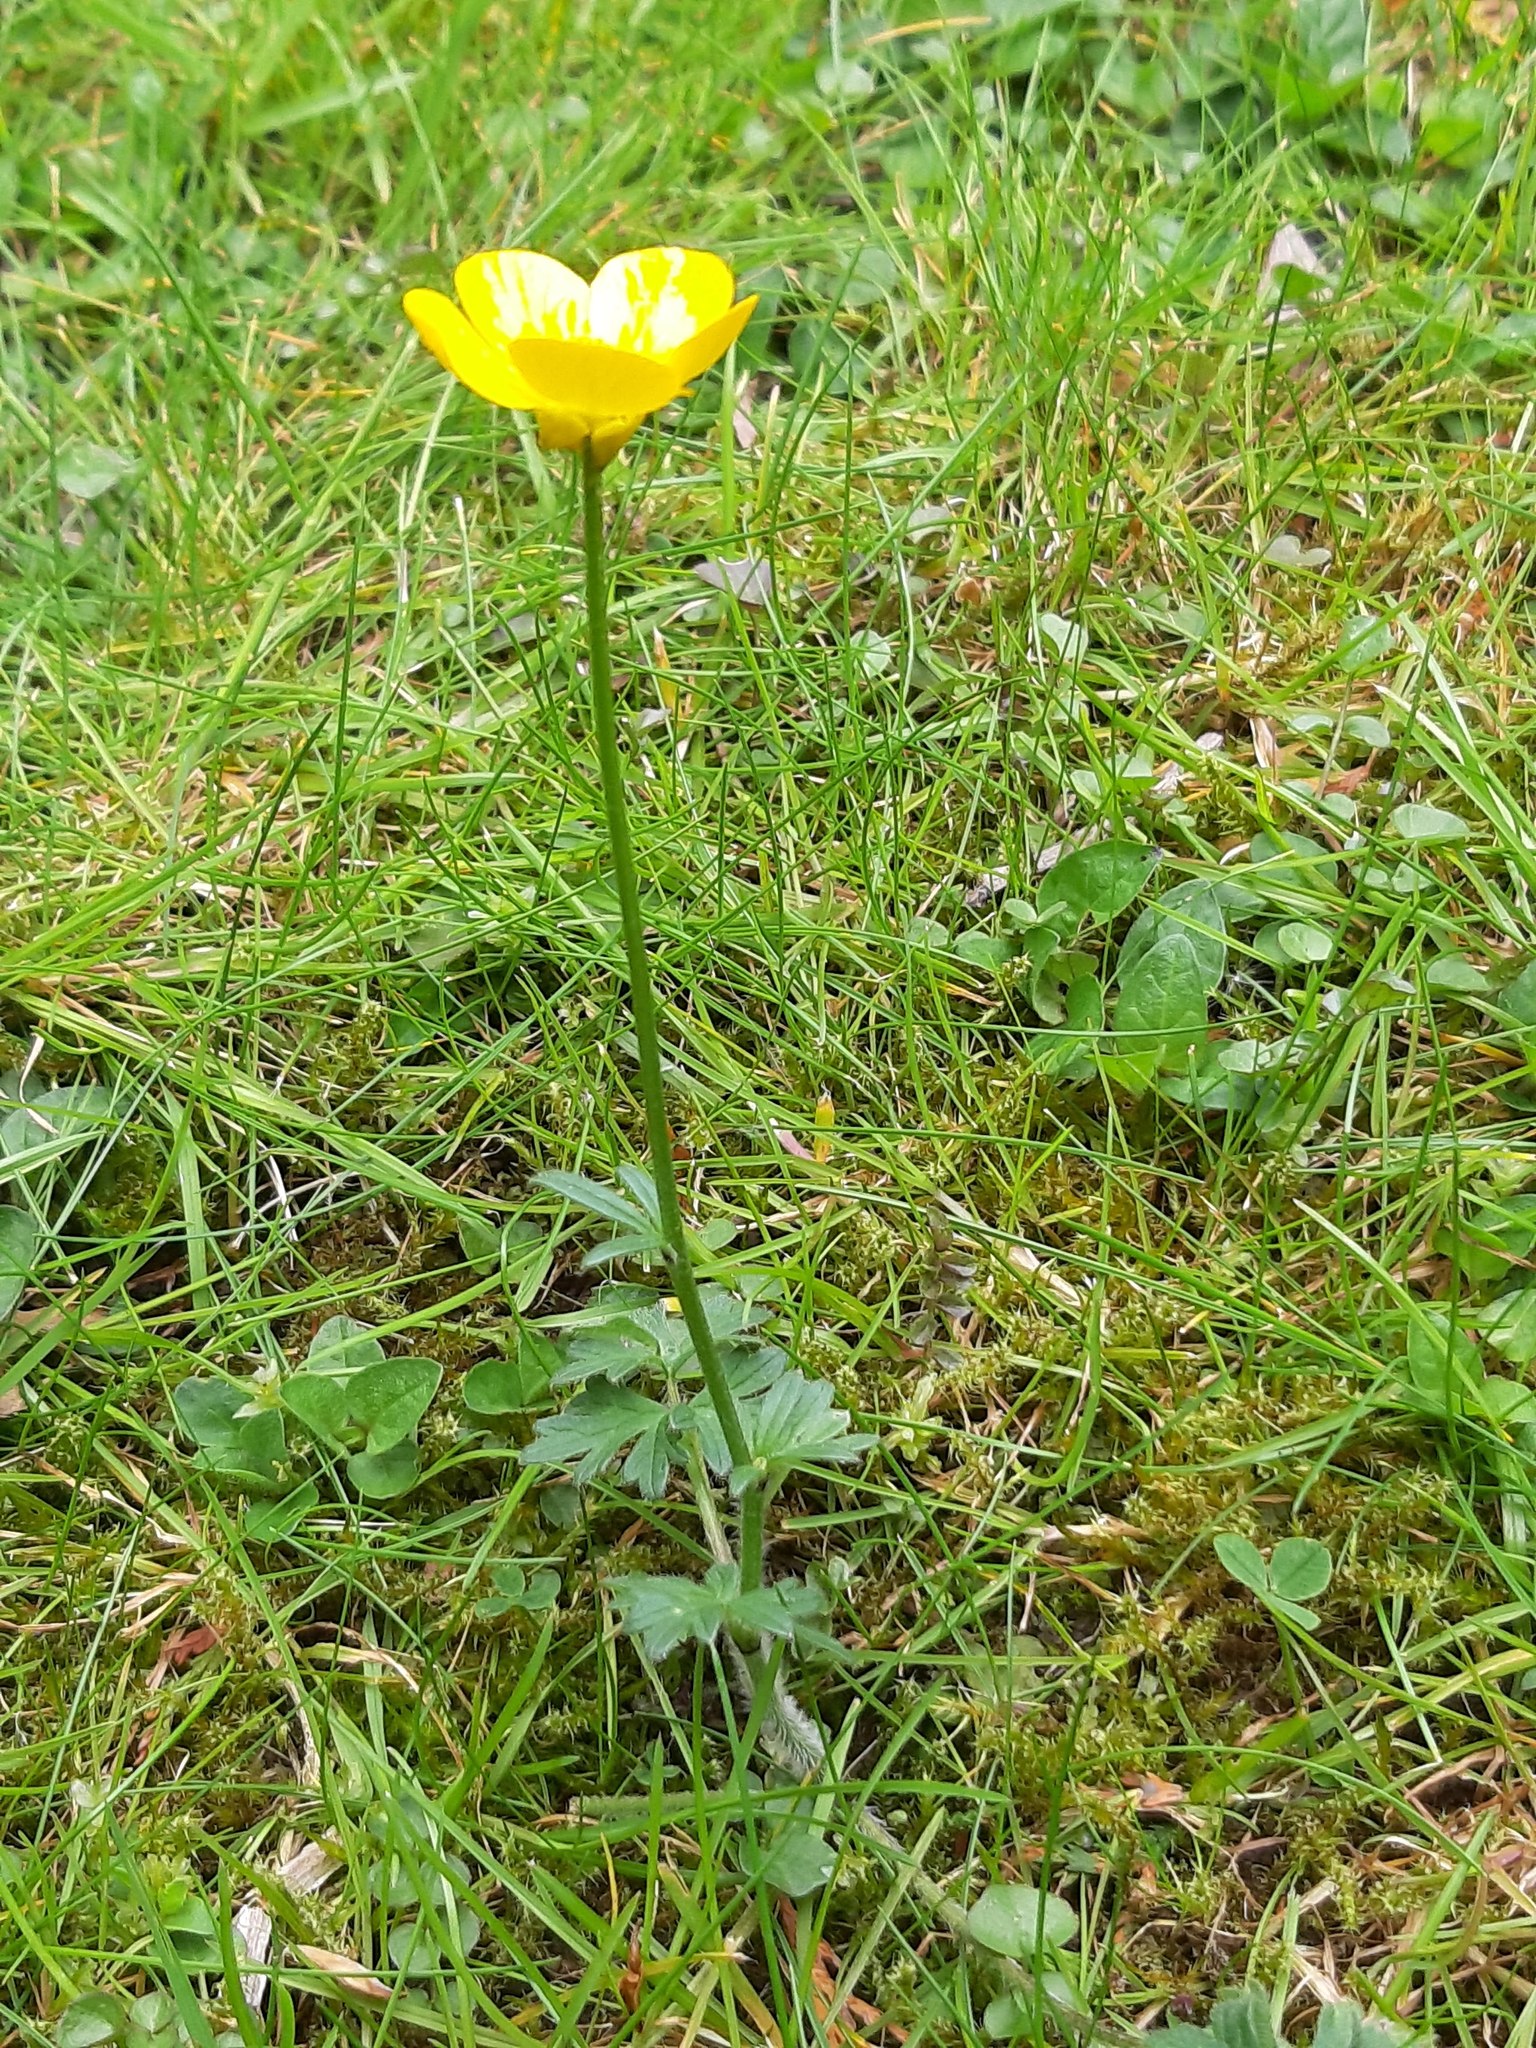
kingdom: Plantae
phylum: Tracheophyta
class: Magnoliopsida
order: Ranunculales
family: Ranunculaceae
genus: Ranunculus
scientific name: Ranunculus bulbosus
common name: Bulbous buttercup
